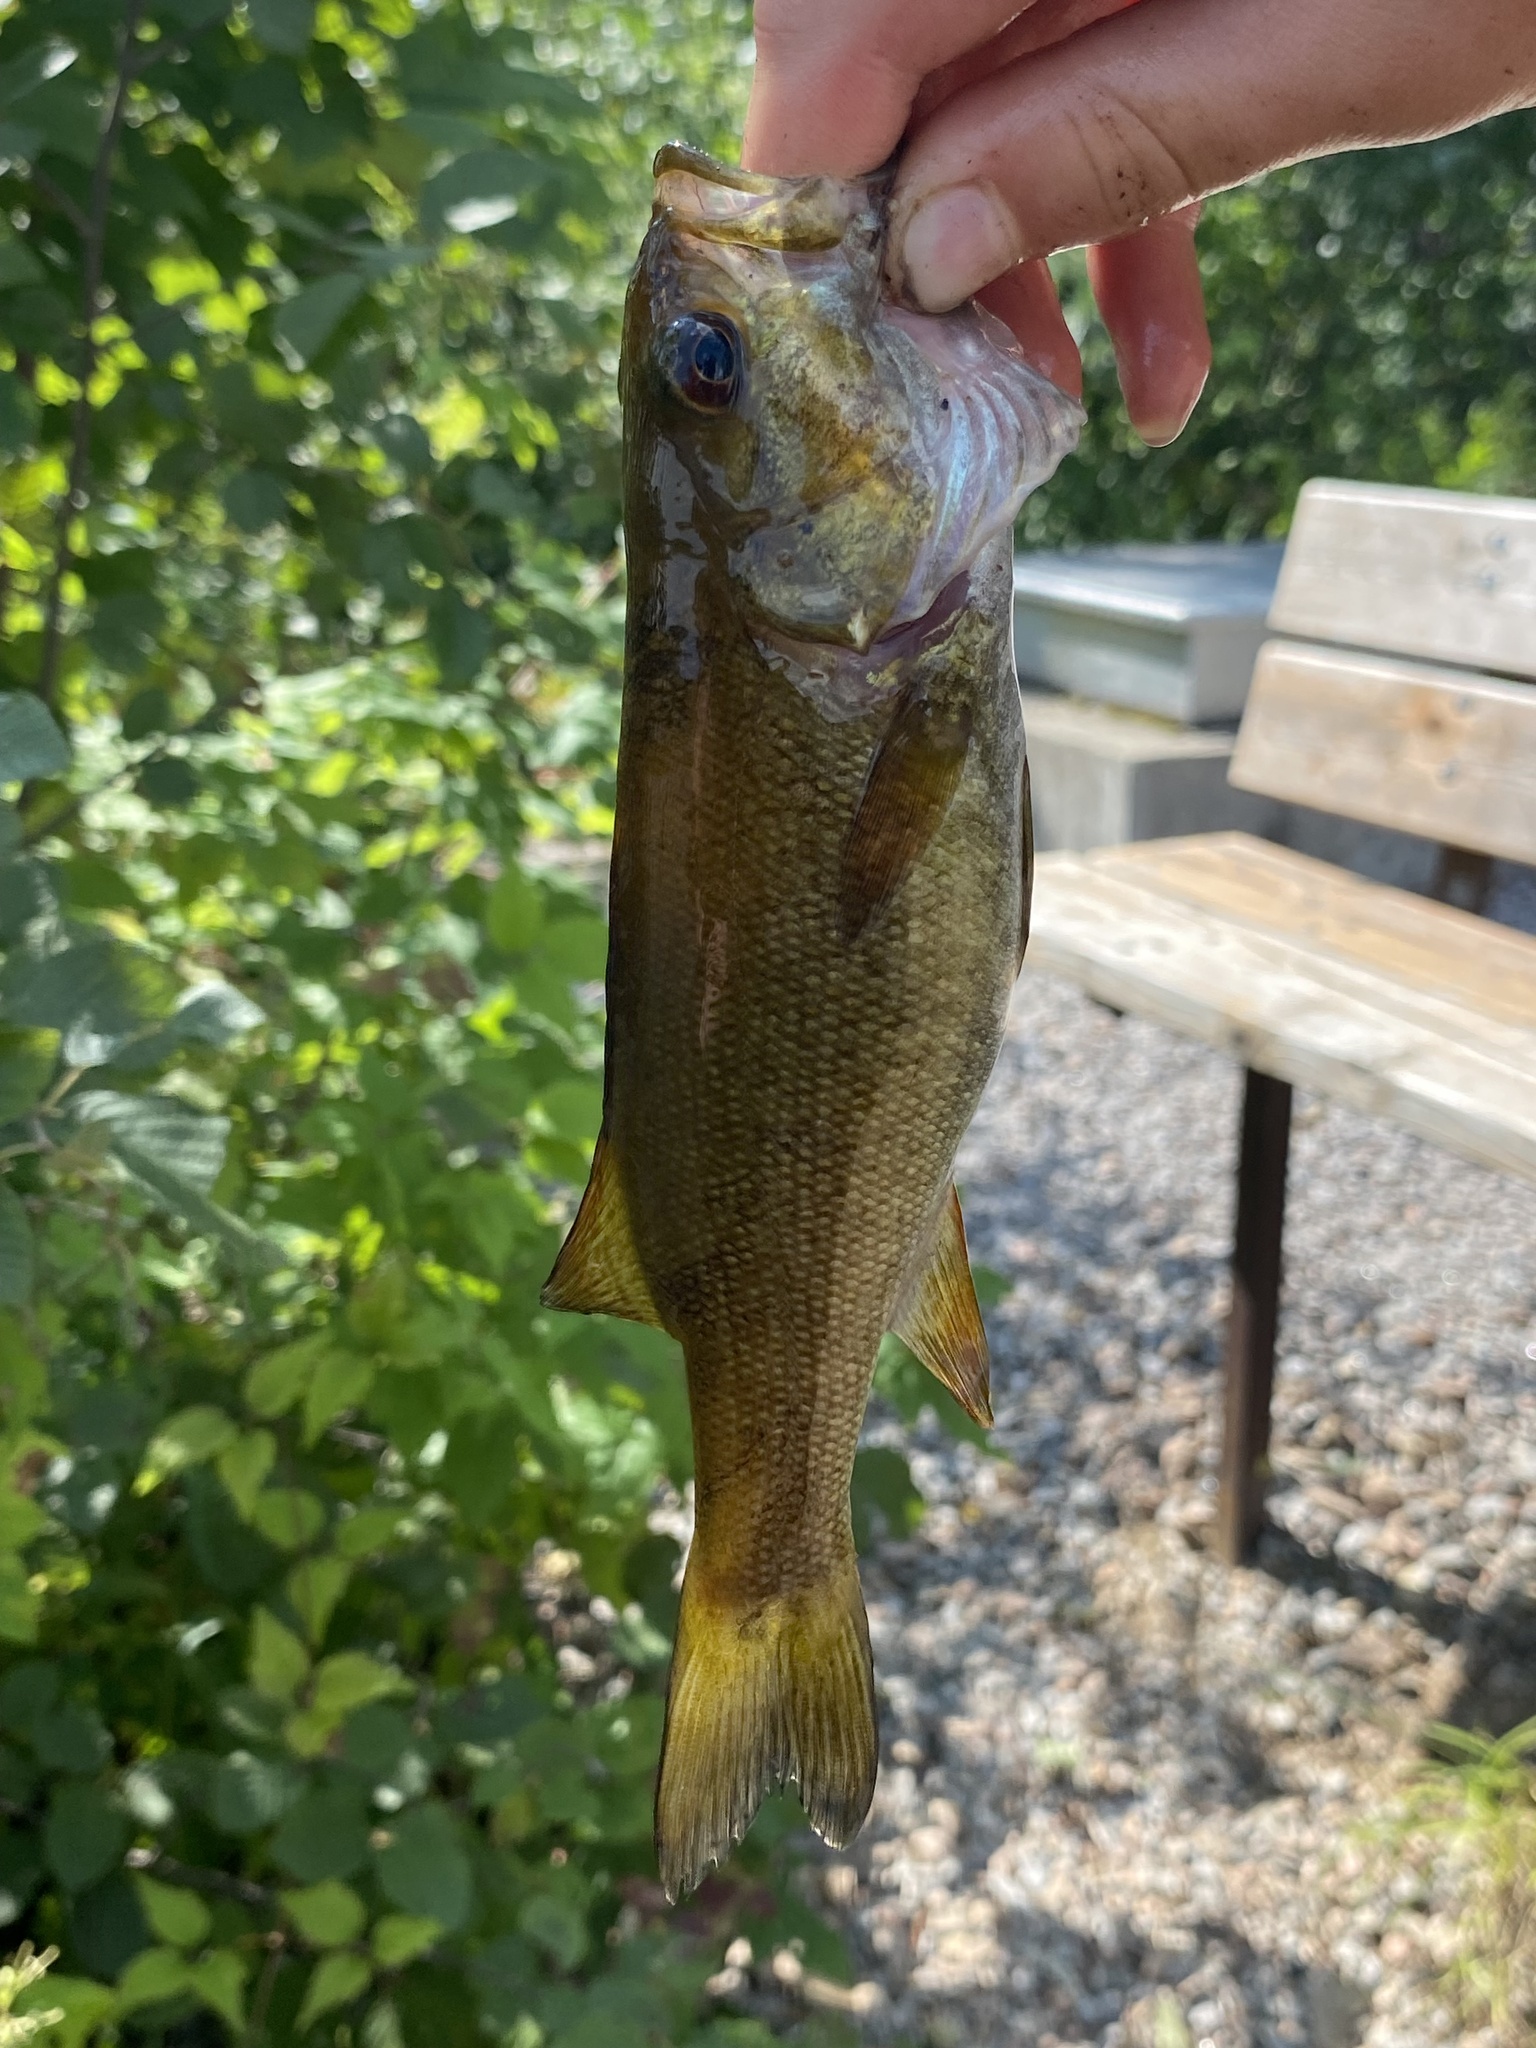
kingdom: Animalia
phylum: Chordata
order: Perciformes
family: Centrarchidae
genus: Micropterus
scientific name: Micropterus dolomieu
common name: Smallmouth bass
